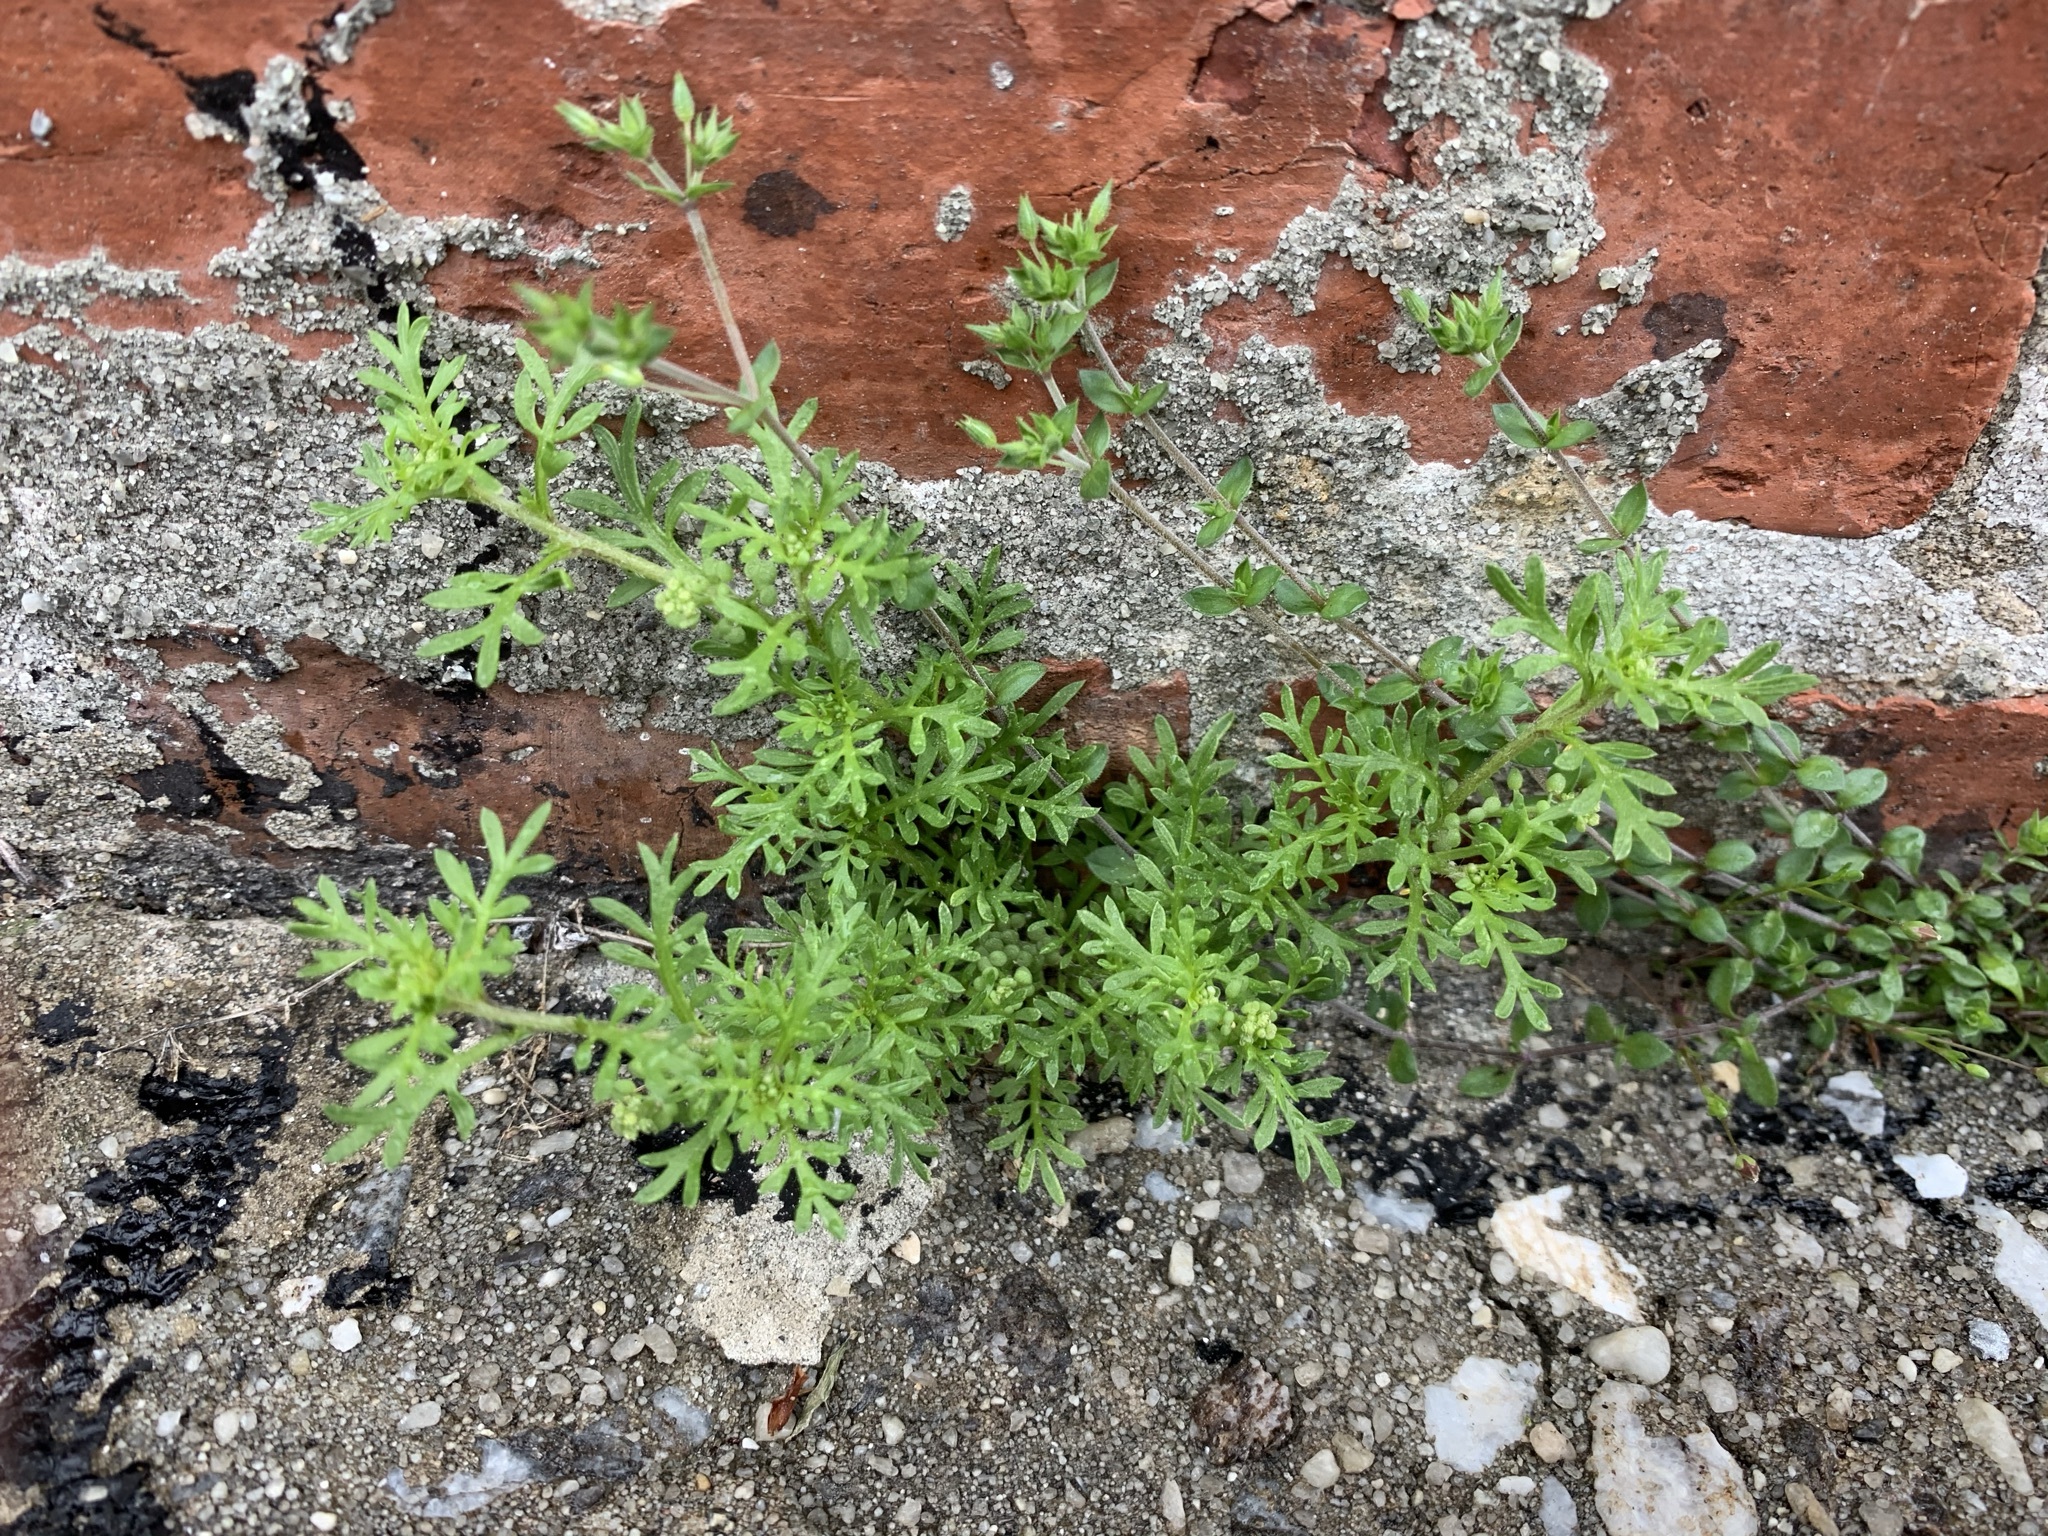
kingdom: Plantae
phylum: Tracheophyta
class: Magnoliopsida
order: Brassicales
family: Brassicaceae
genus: Lepidium
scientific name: Lepidium didymum
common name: Lesser swinecress
